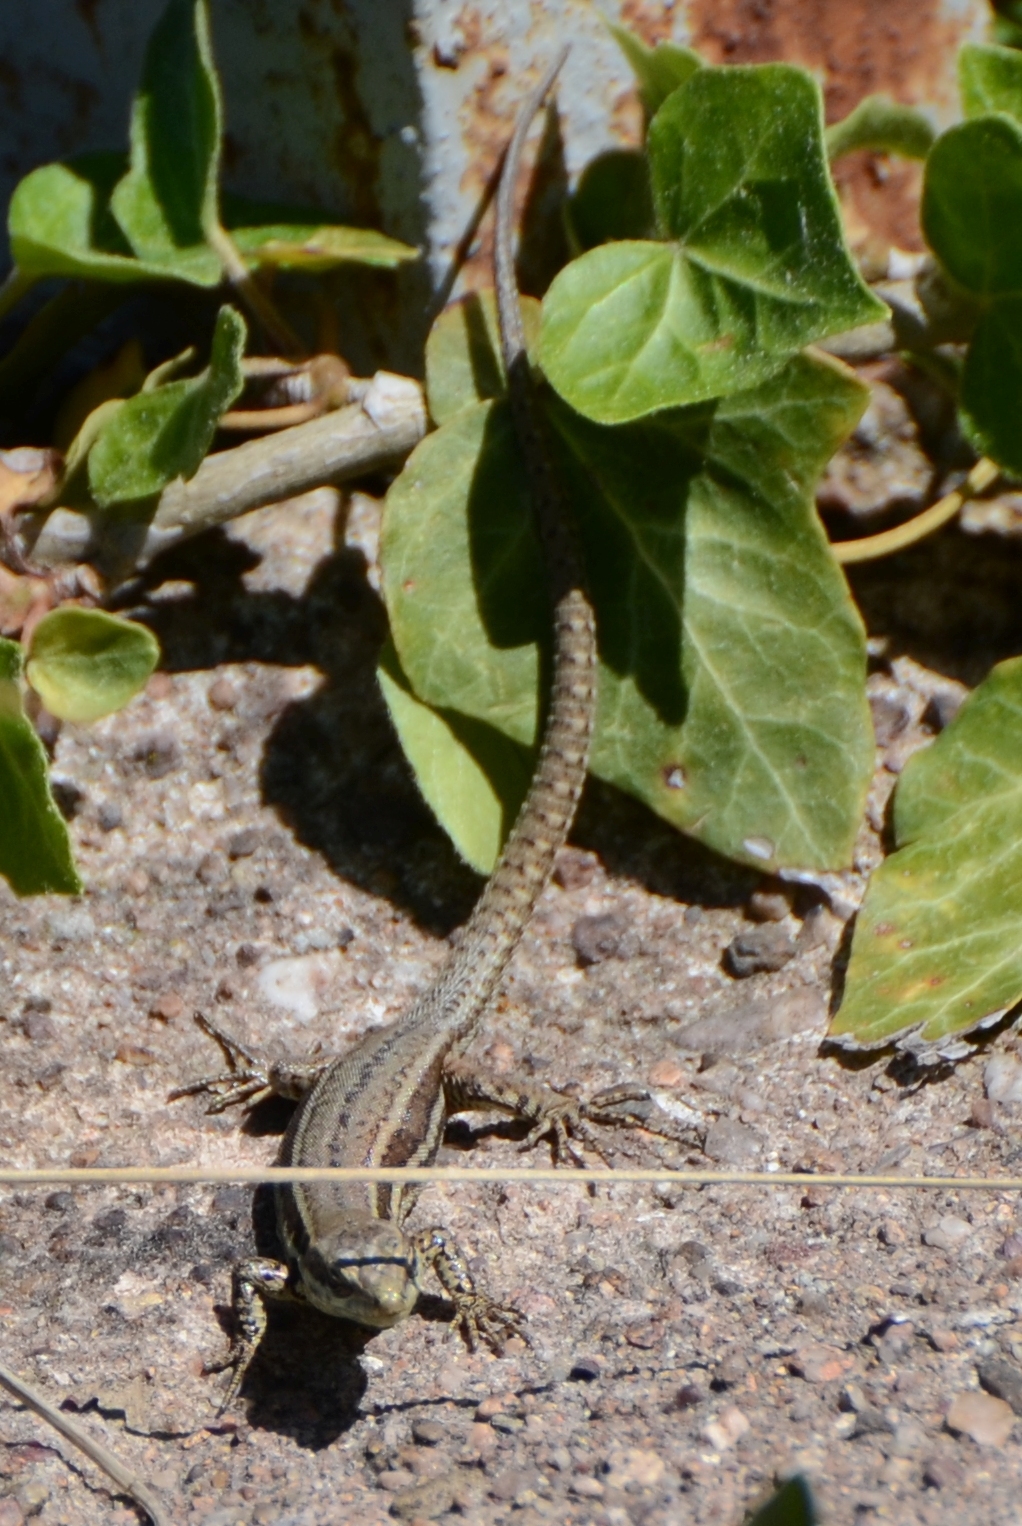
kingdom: Animalia
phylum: Chordata
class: Squamata
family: Lacertidae
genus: Podarcis
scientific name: Podarcis muralis
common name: Common wall lizard
